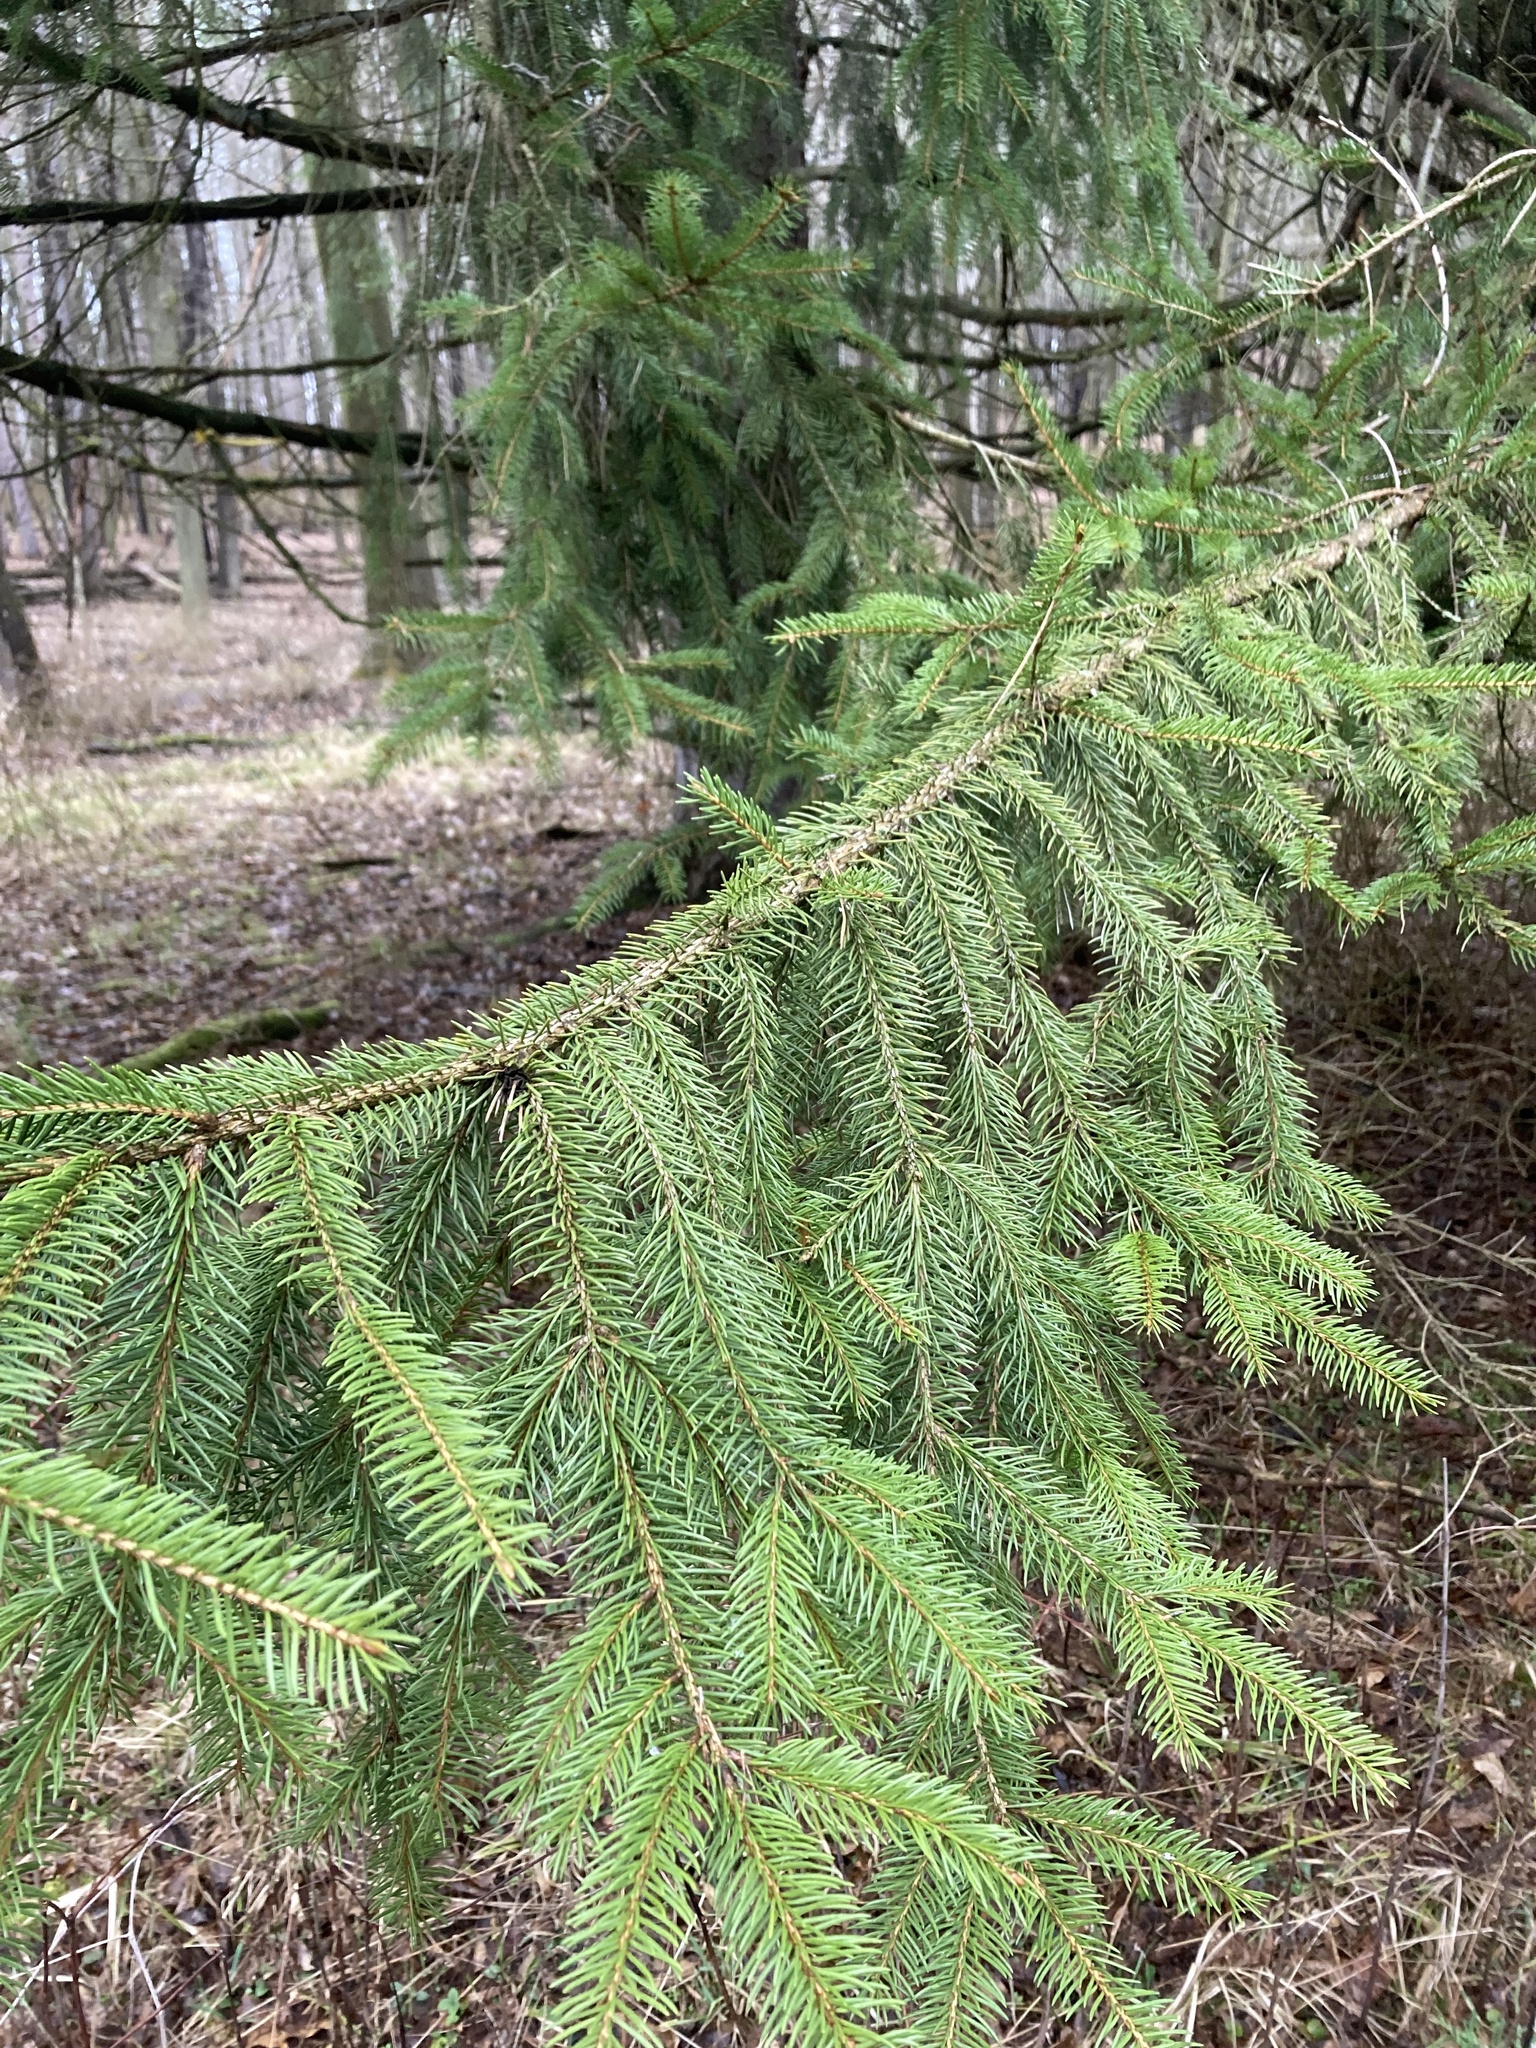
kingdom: Plantae
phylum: Tracheophyta
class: Pinopsida
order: Pinales
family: Pinaceae
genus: Picea
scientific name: Picea abies
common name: Norway spruce
